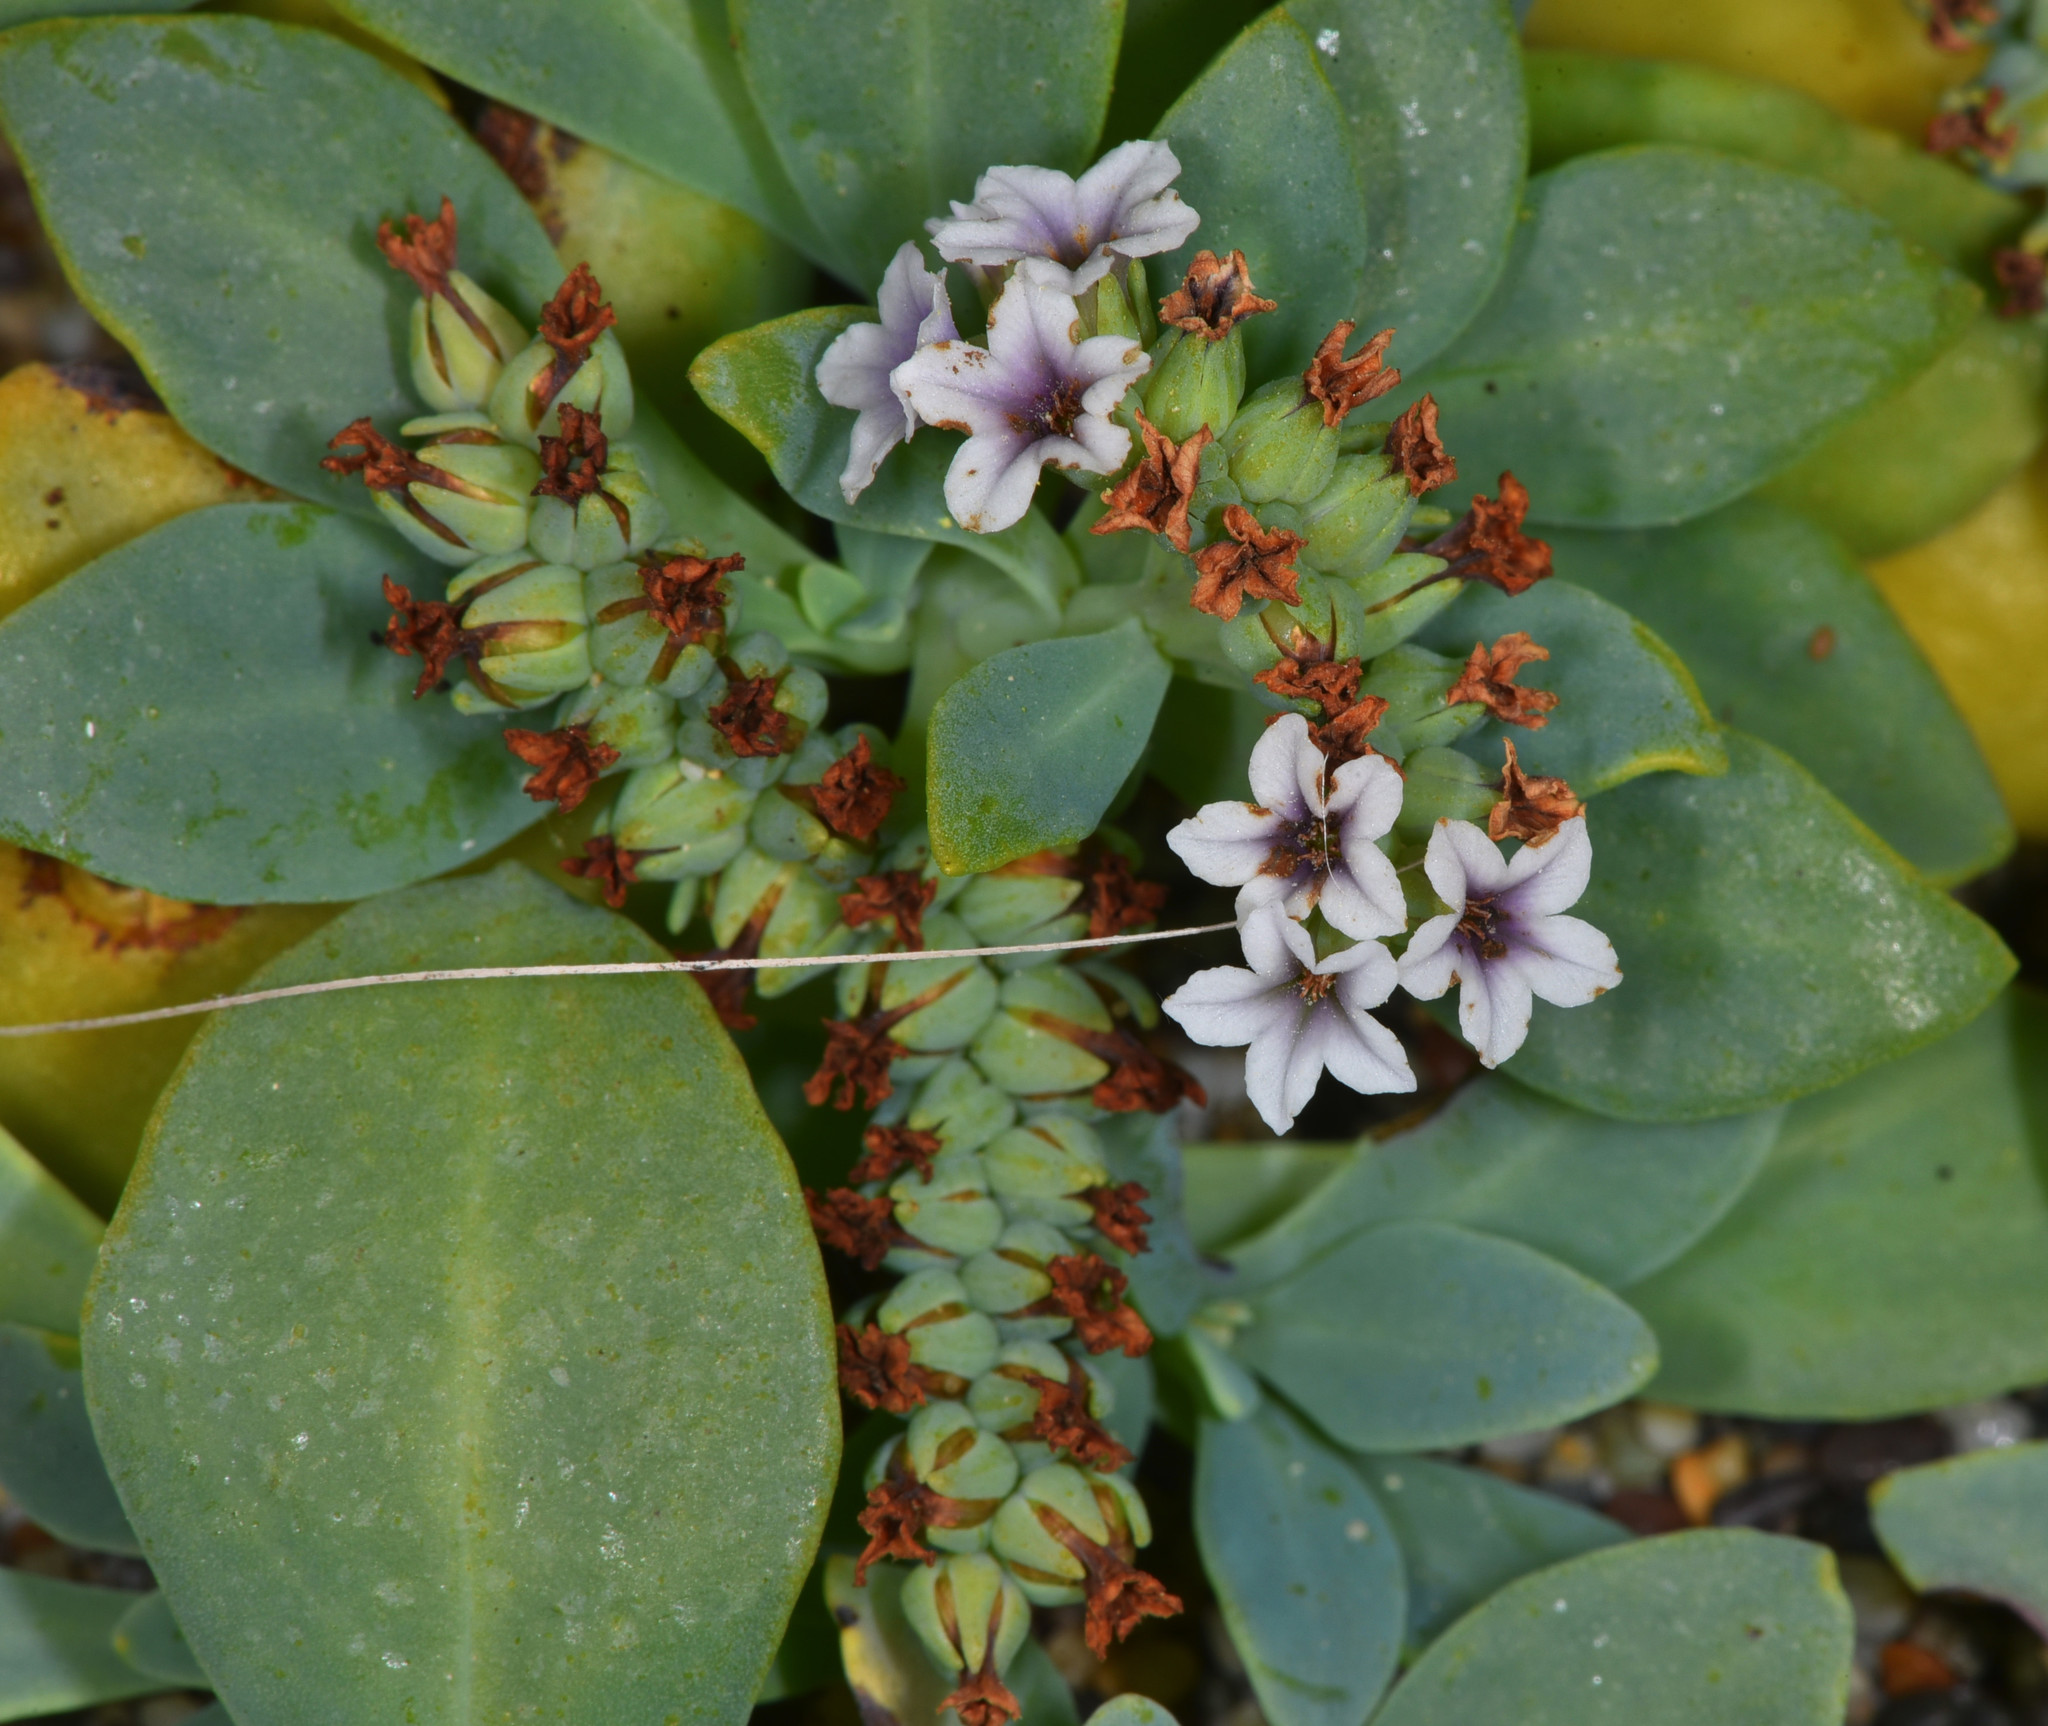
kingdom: Plantae
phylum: Tracheophyta
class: Magnoliopsida
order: Boraginales
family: Heliotropiaceae
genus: Heliotropium
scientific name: Heliotropium curassavicum
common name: Seaside heliotrope
